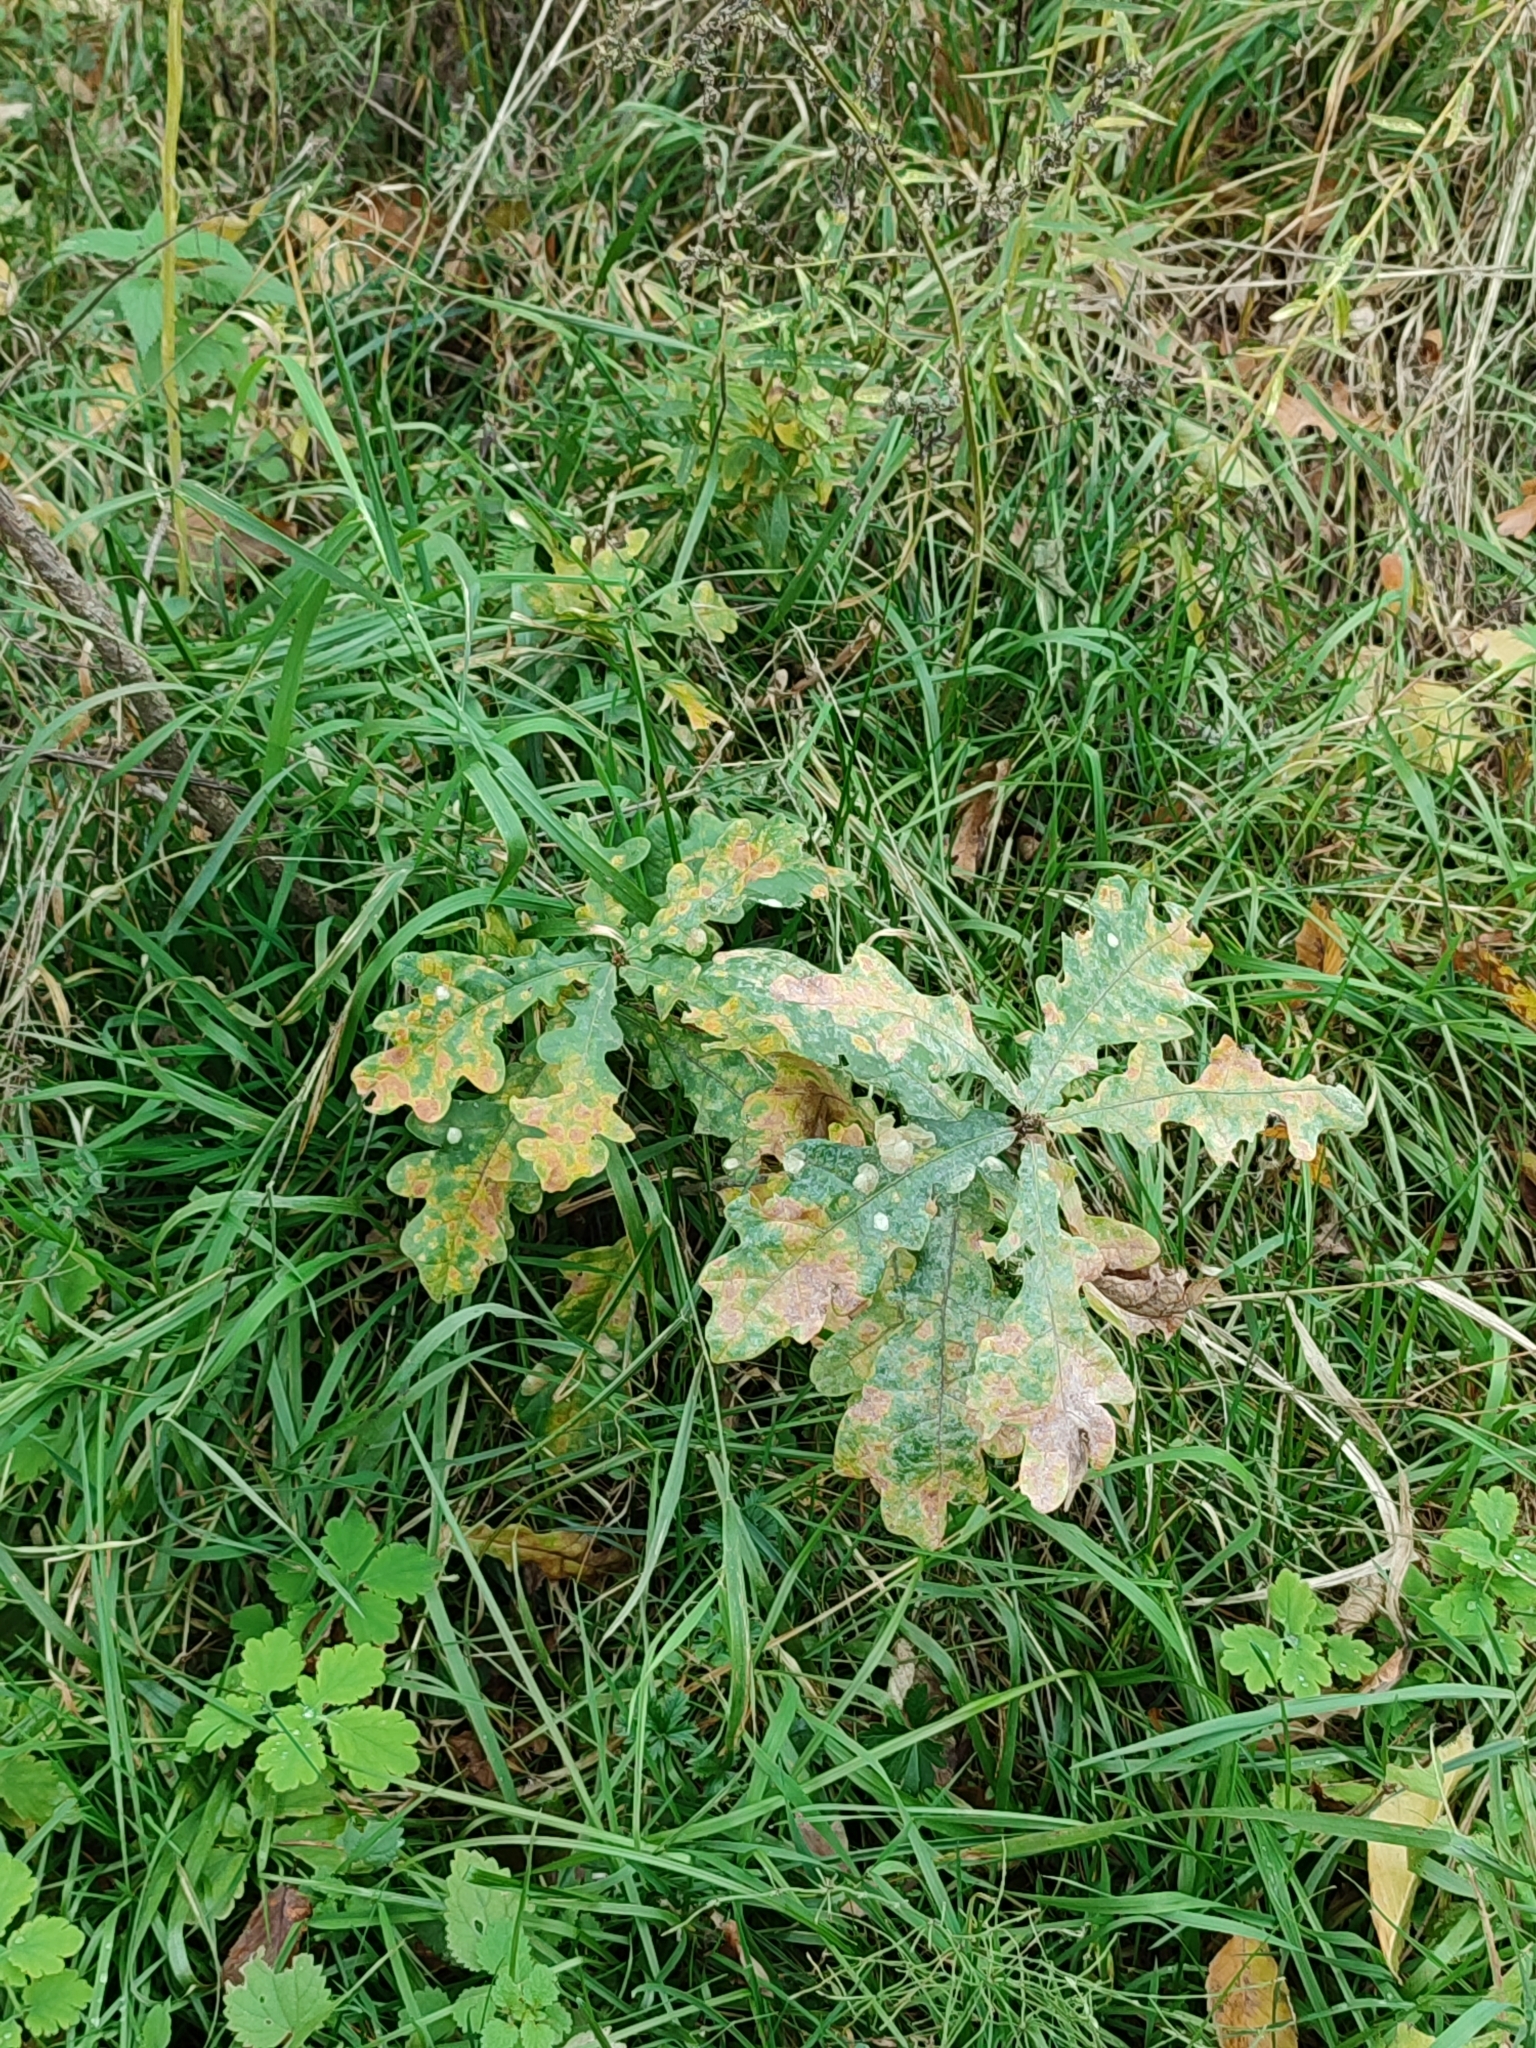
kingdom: Plantae
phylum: Tracheophyta
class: Magnoliopsida
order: Fagales
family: Fagaceae
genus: Quercus
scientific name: Quercus robur
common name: Pedunculate oak
